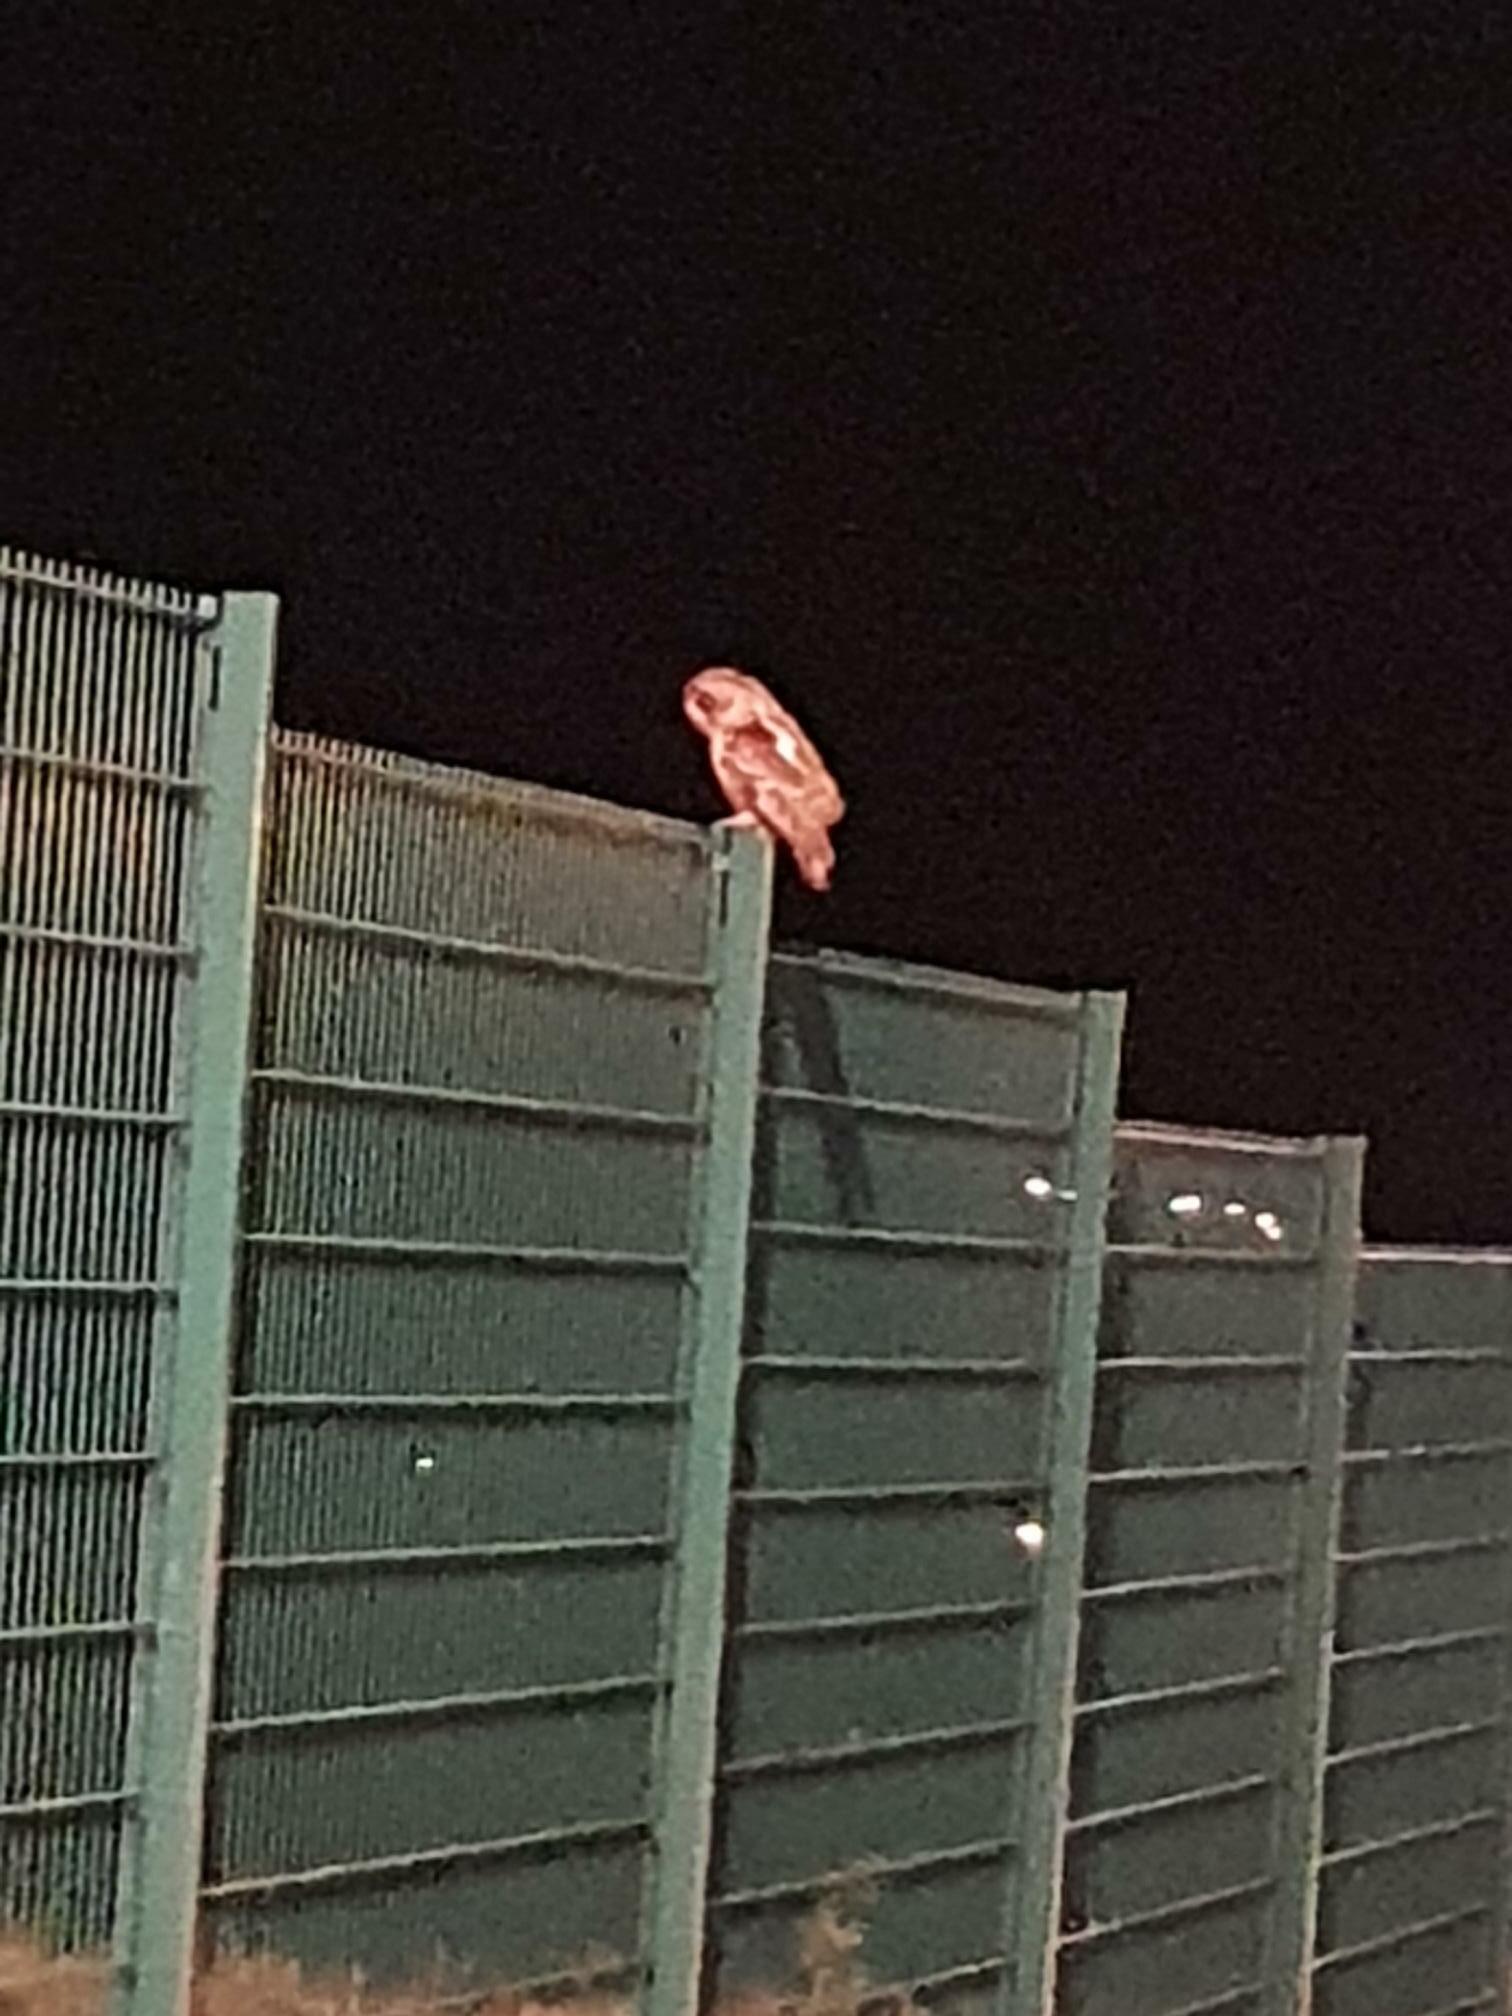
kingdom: Animalia
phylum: Chordata
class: Aves
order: Strigiformes
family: Strigidae
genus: Strix
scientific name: Strix aluco
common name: Tawny owl
